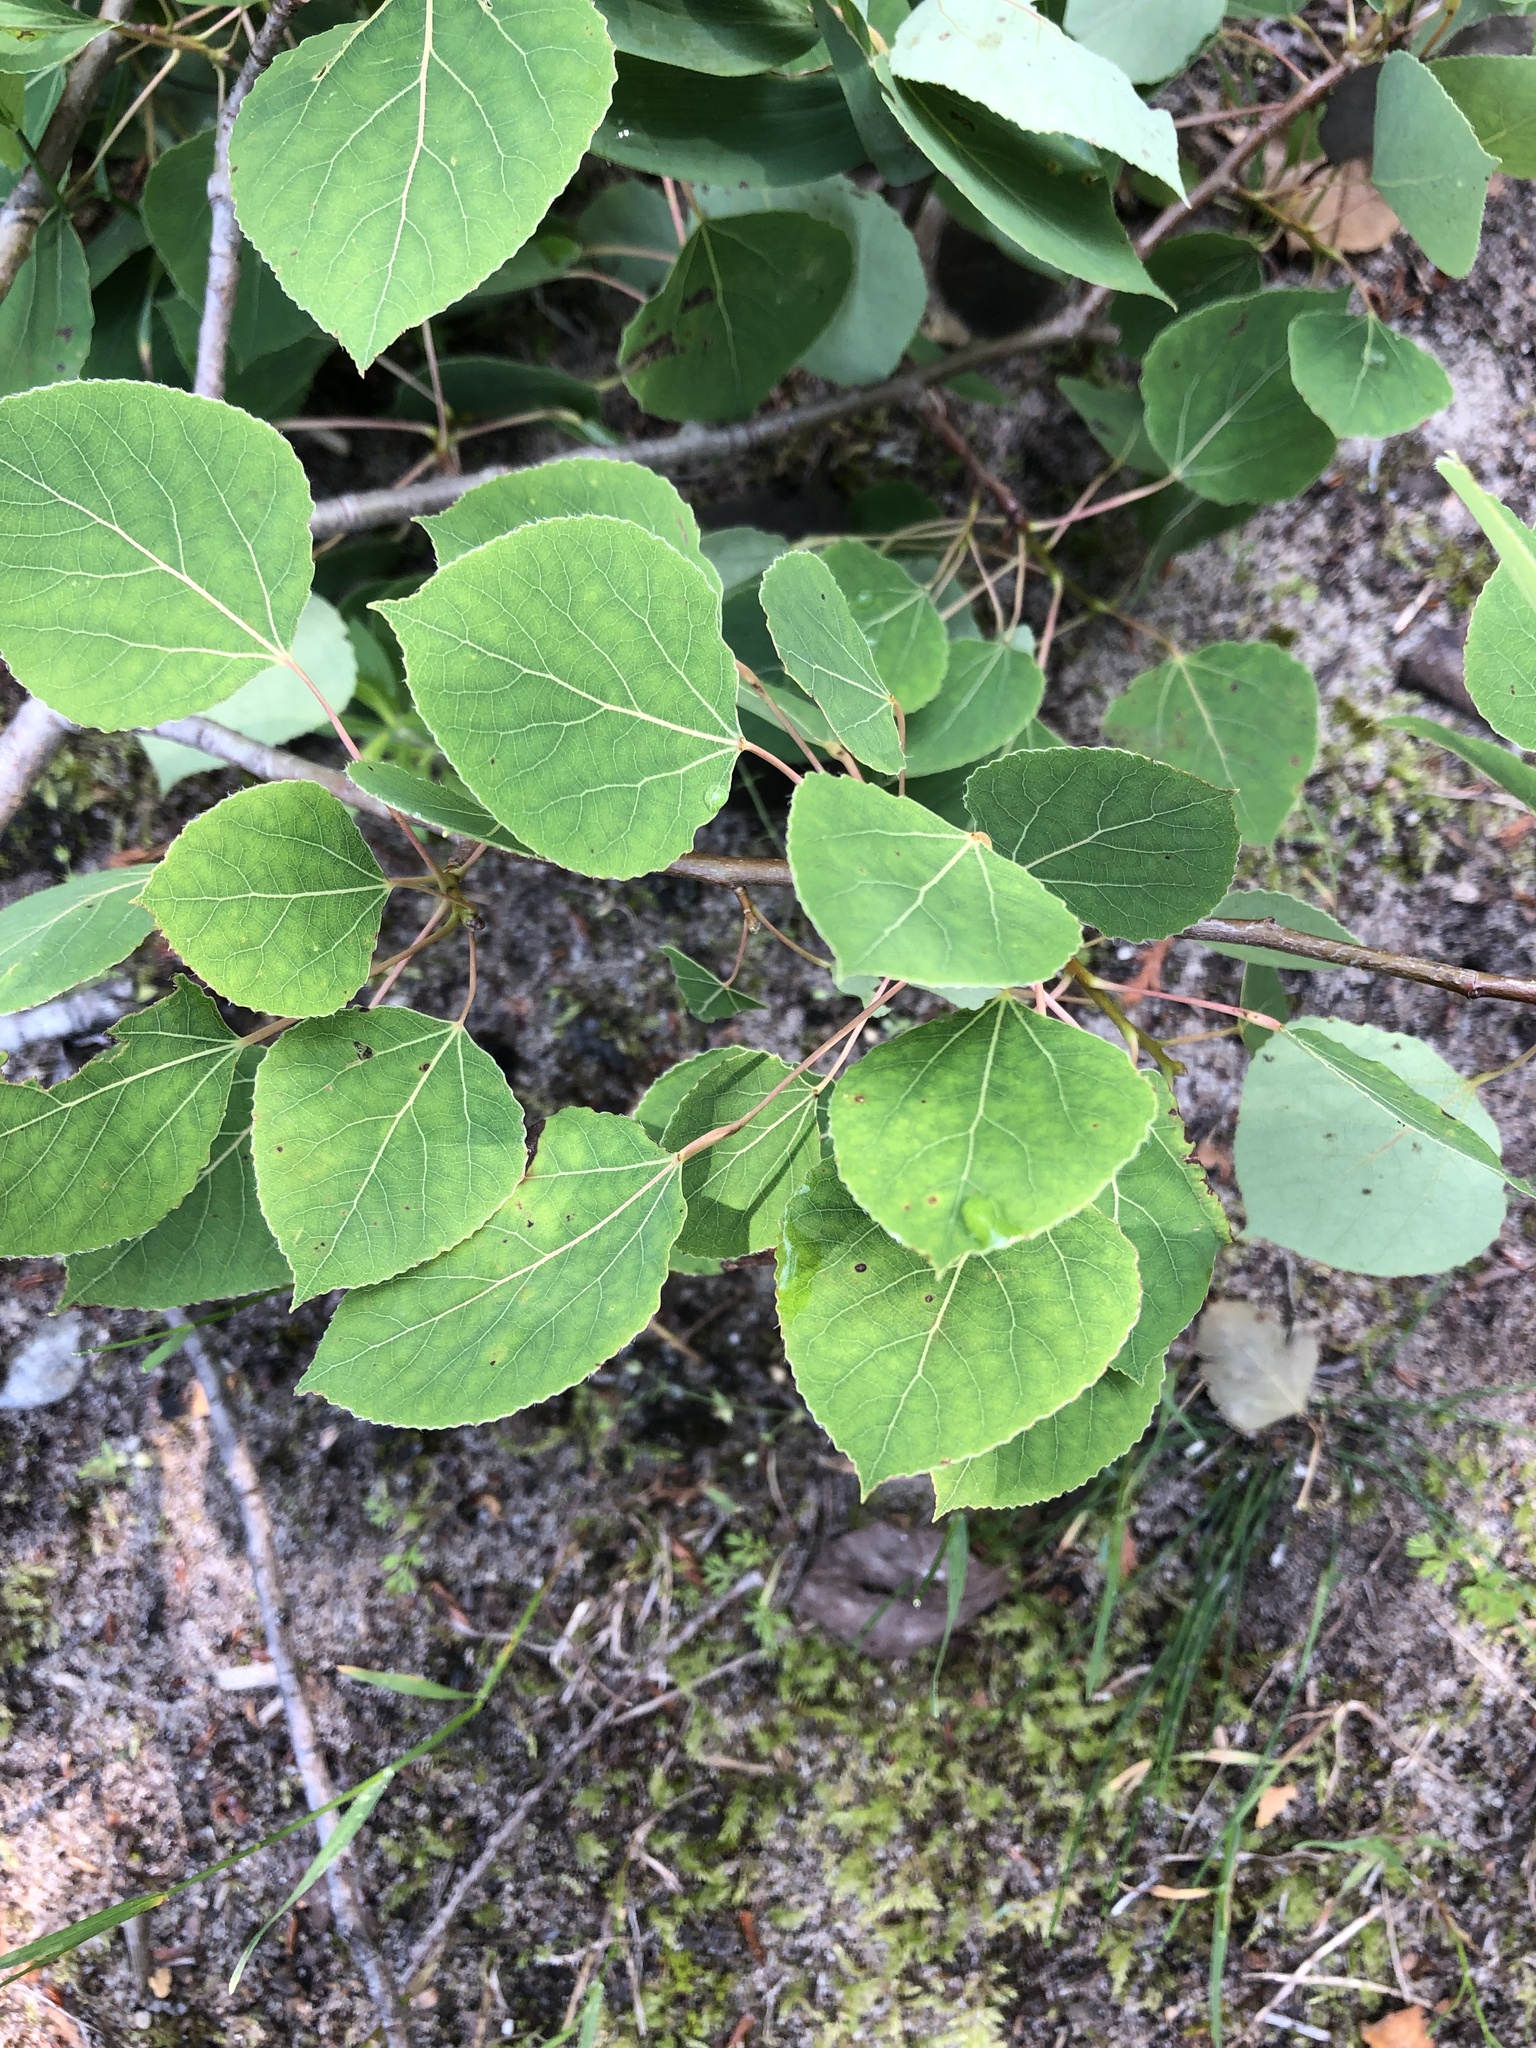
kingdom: Plantae
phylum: Tracheophyta
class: Magnoliopsida
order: Malpighiales
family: Salicaceae
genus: Populus
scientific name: Populus tremuloides
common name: Quaking aspen
